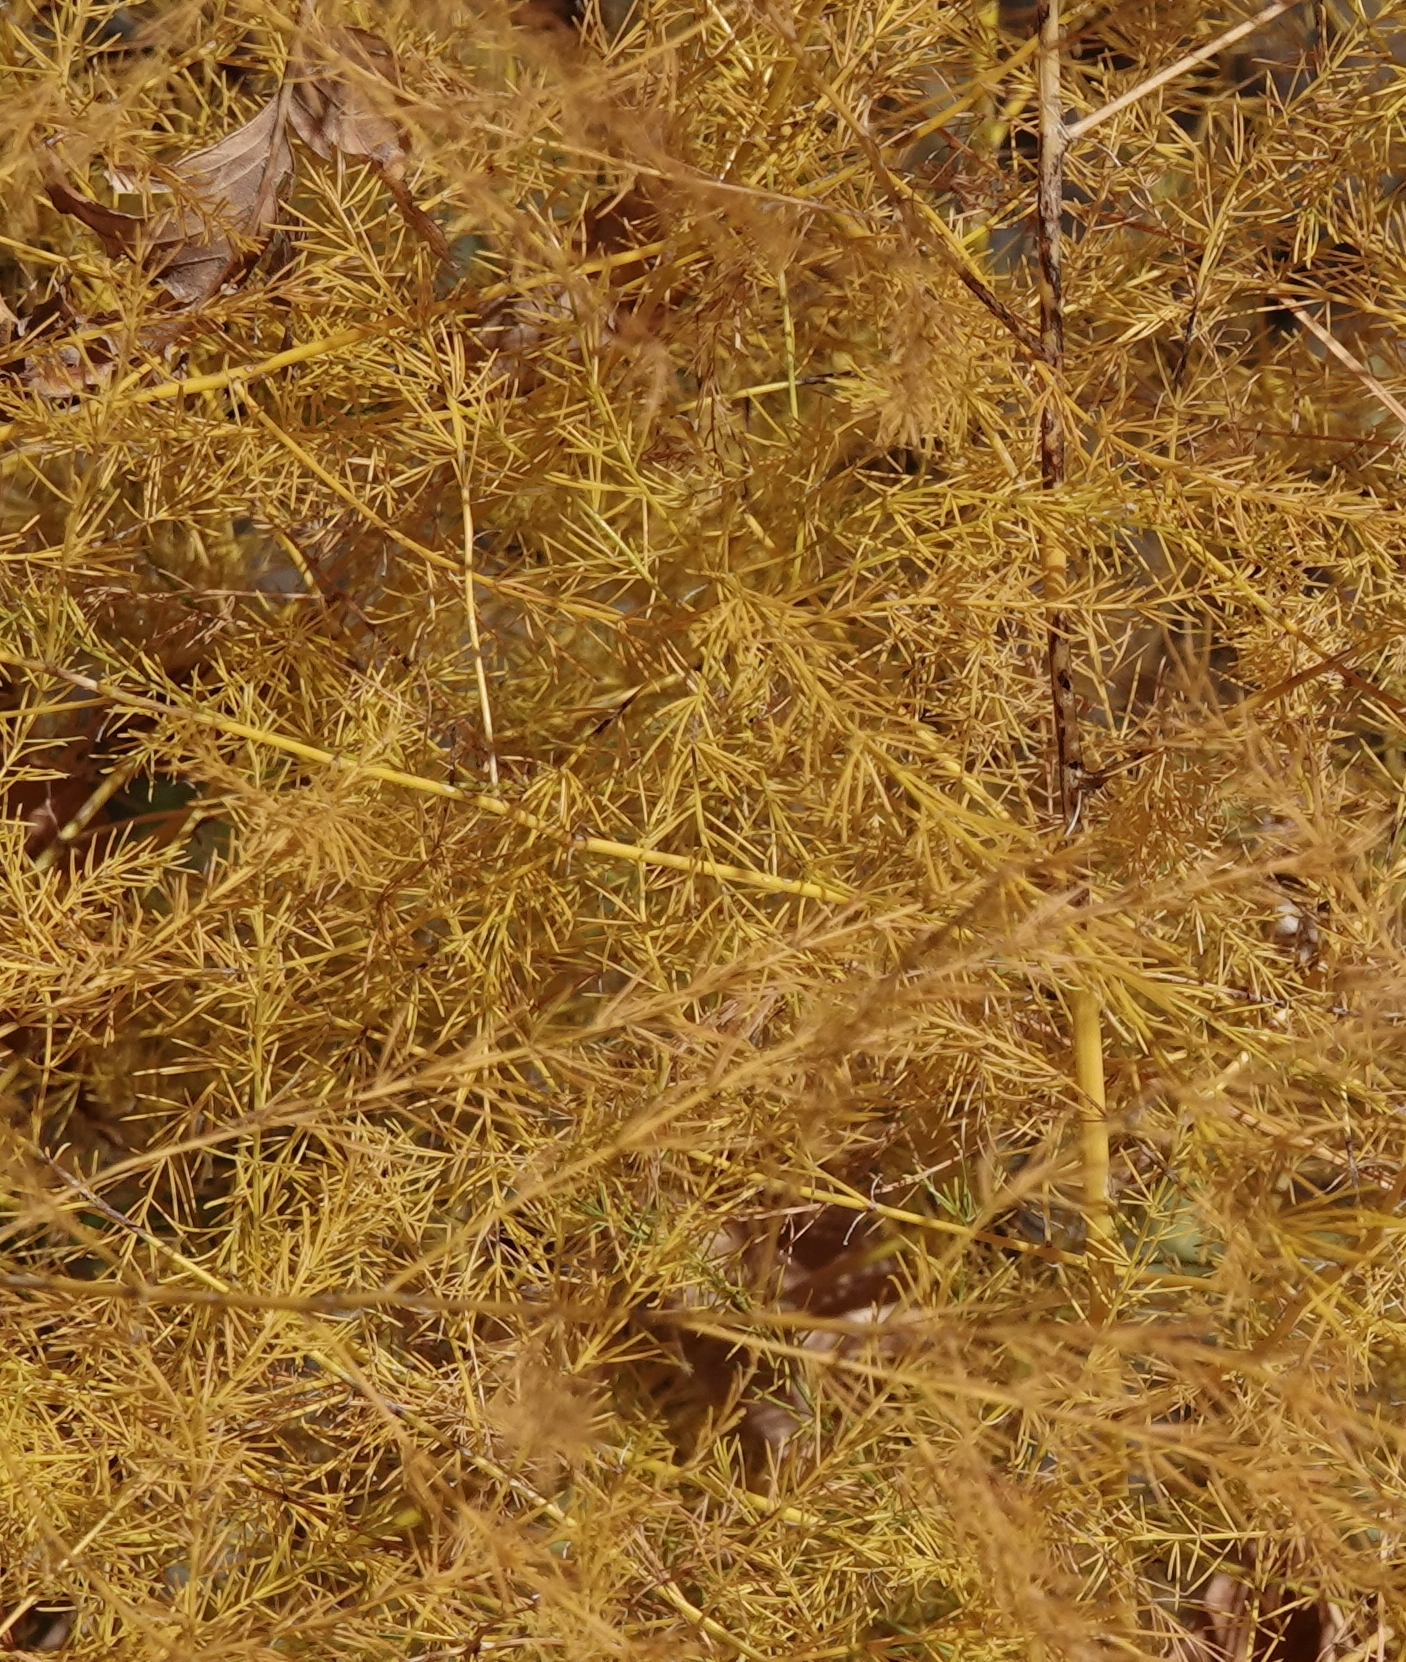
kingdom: Plantae
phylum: Tracheophyta
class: Liliopsida
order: Asparagales
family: Asparagaceae
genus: Asparagus
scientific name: Asparagus officinalis
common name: Garden asparagus
